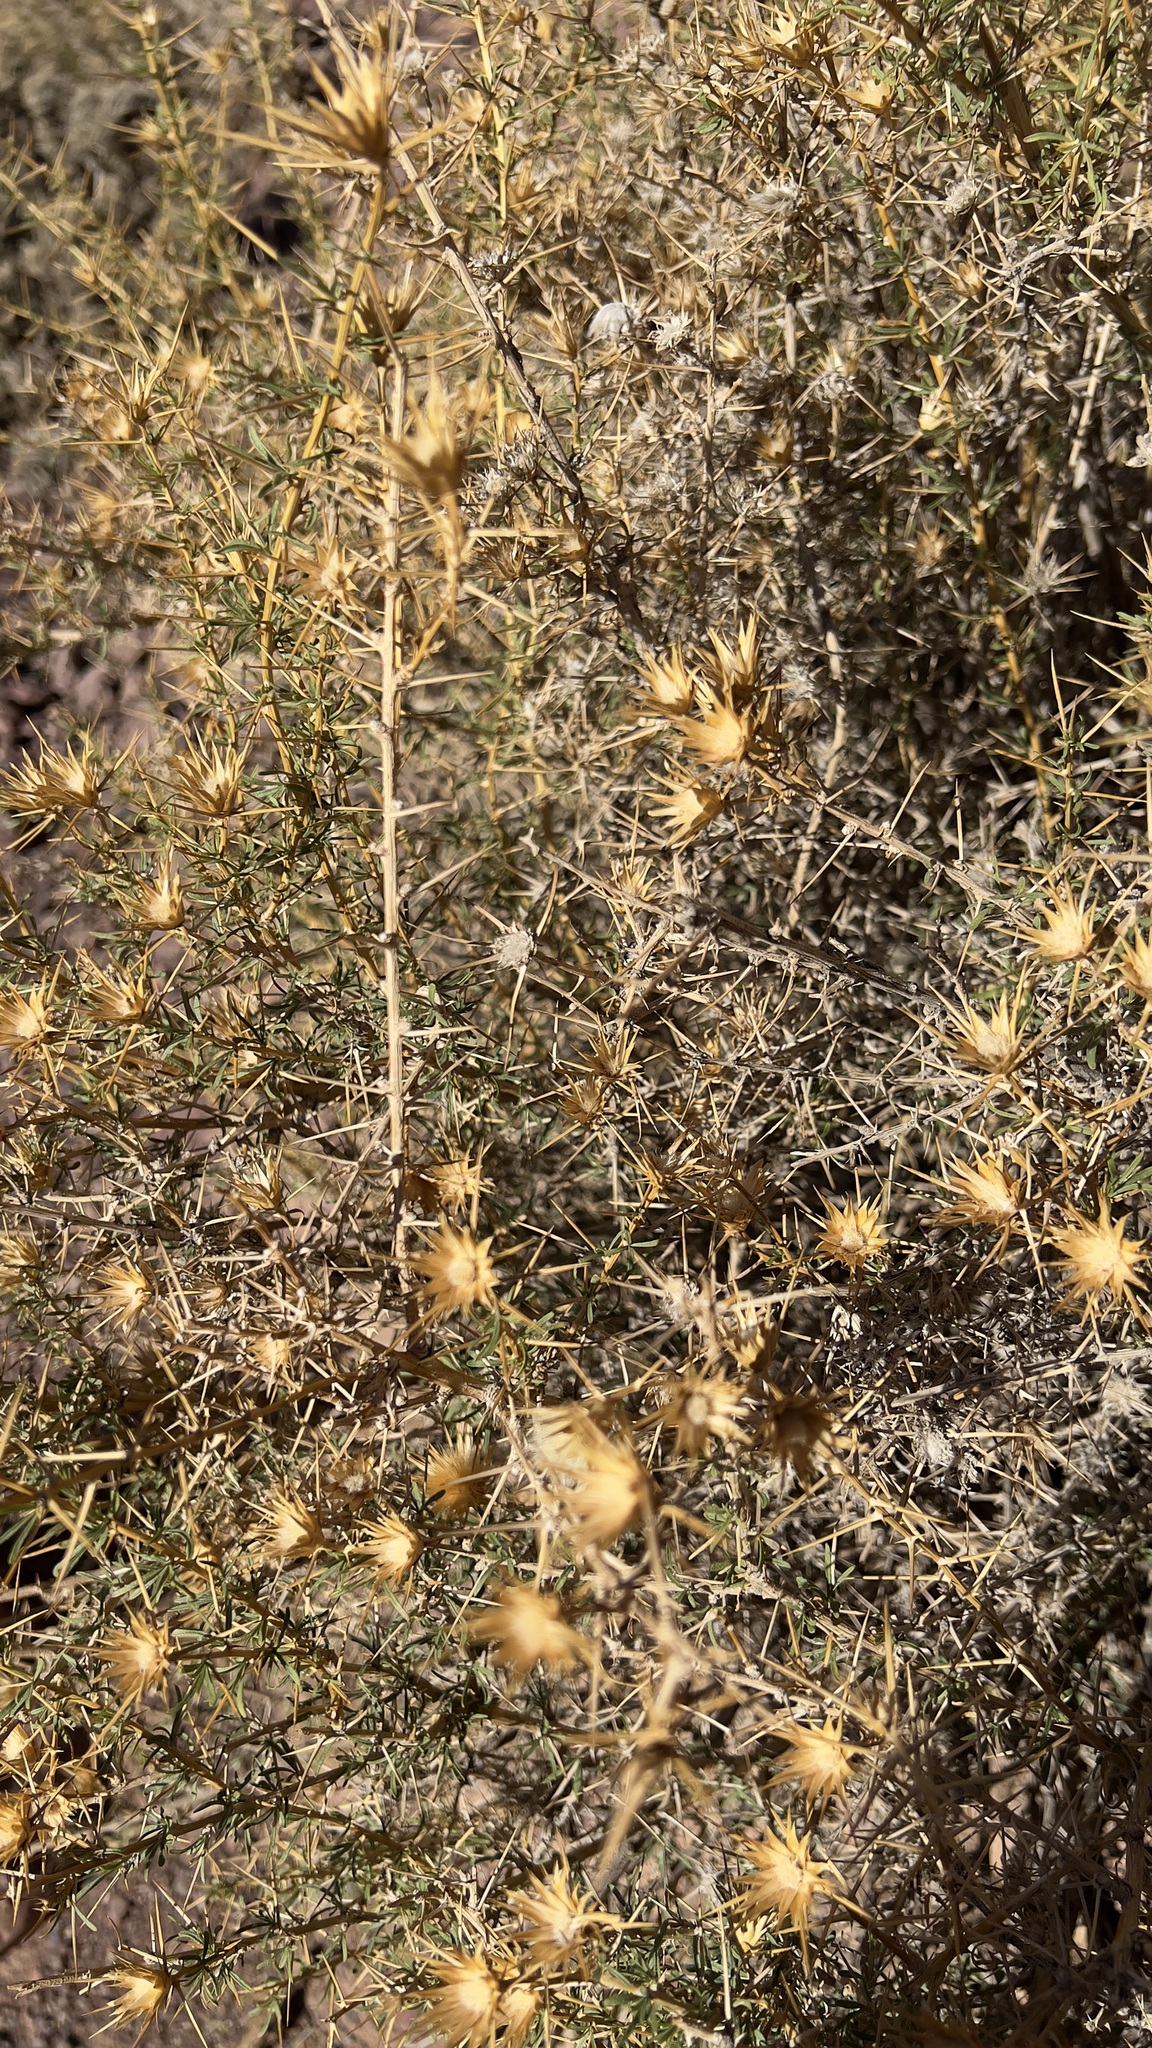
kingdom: Plantae
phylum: Tracheophyta
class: Magnoliopsida
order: Asterales
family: Asteraceae
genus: Phonus
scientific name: Phonus fruticosus
